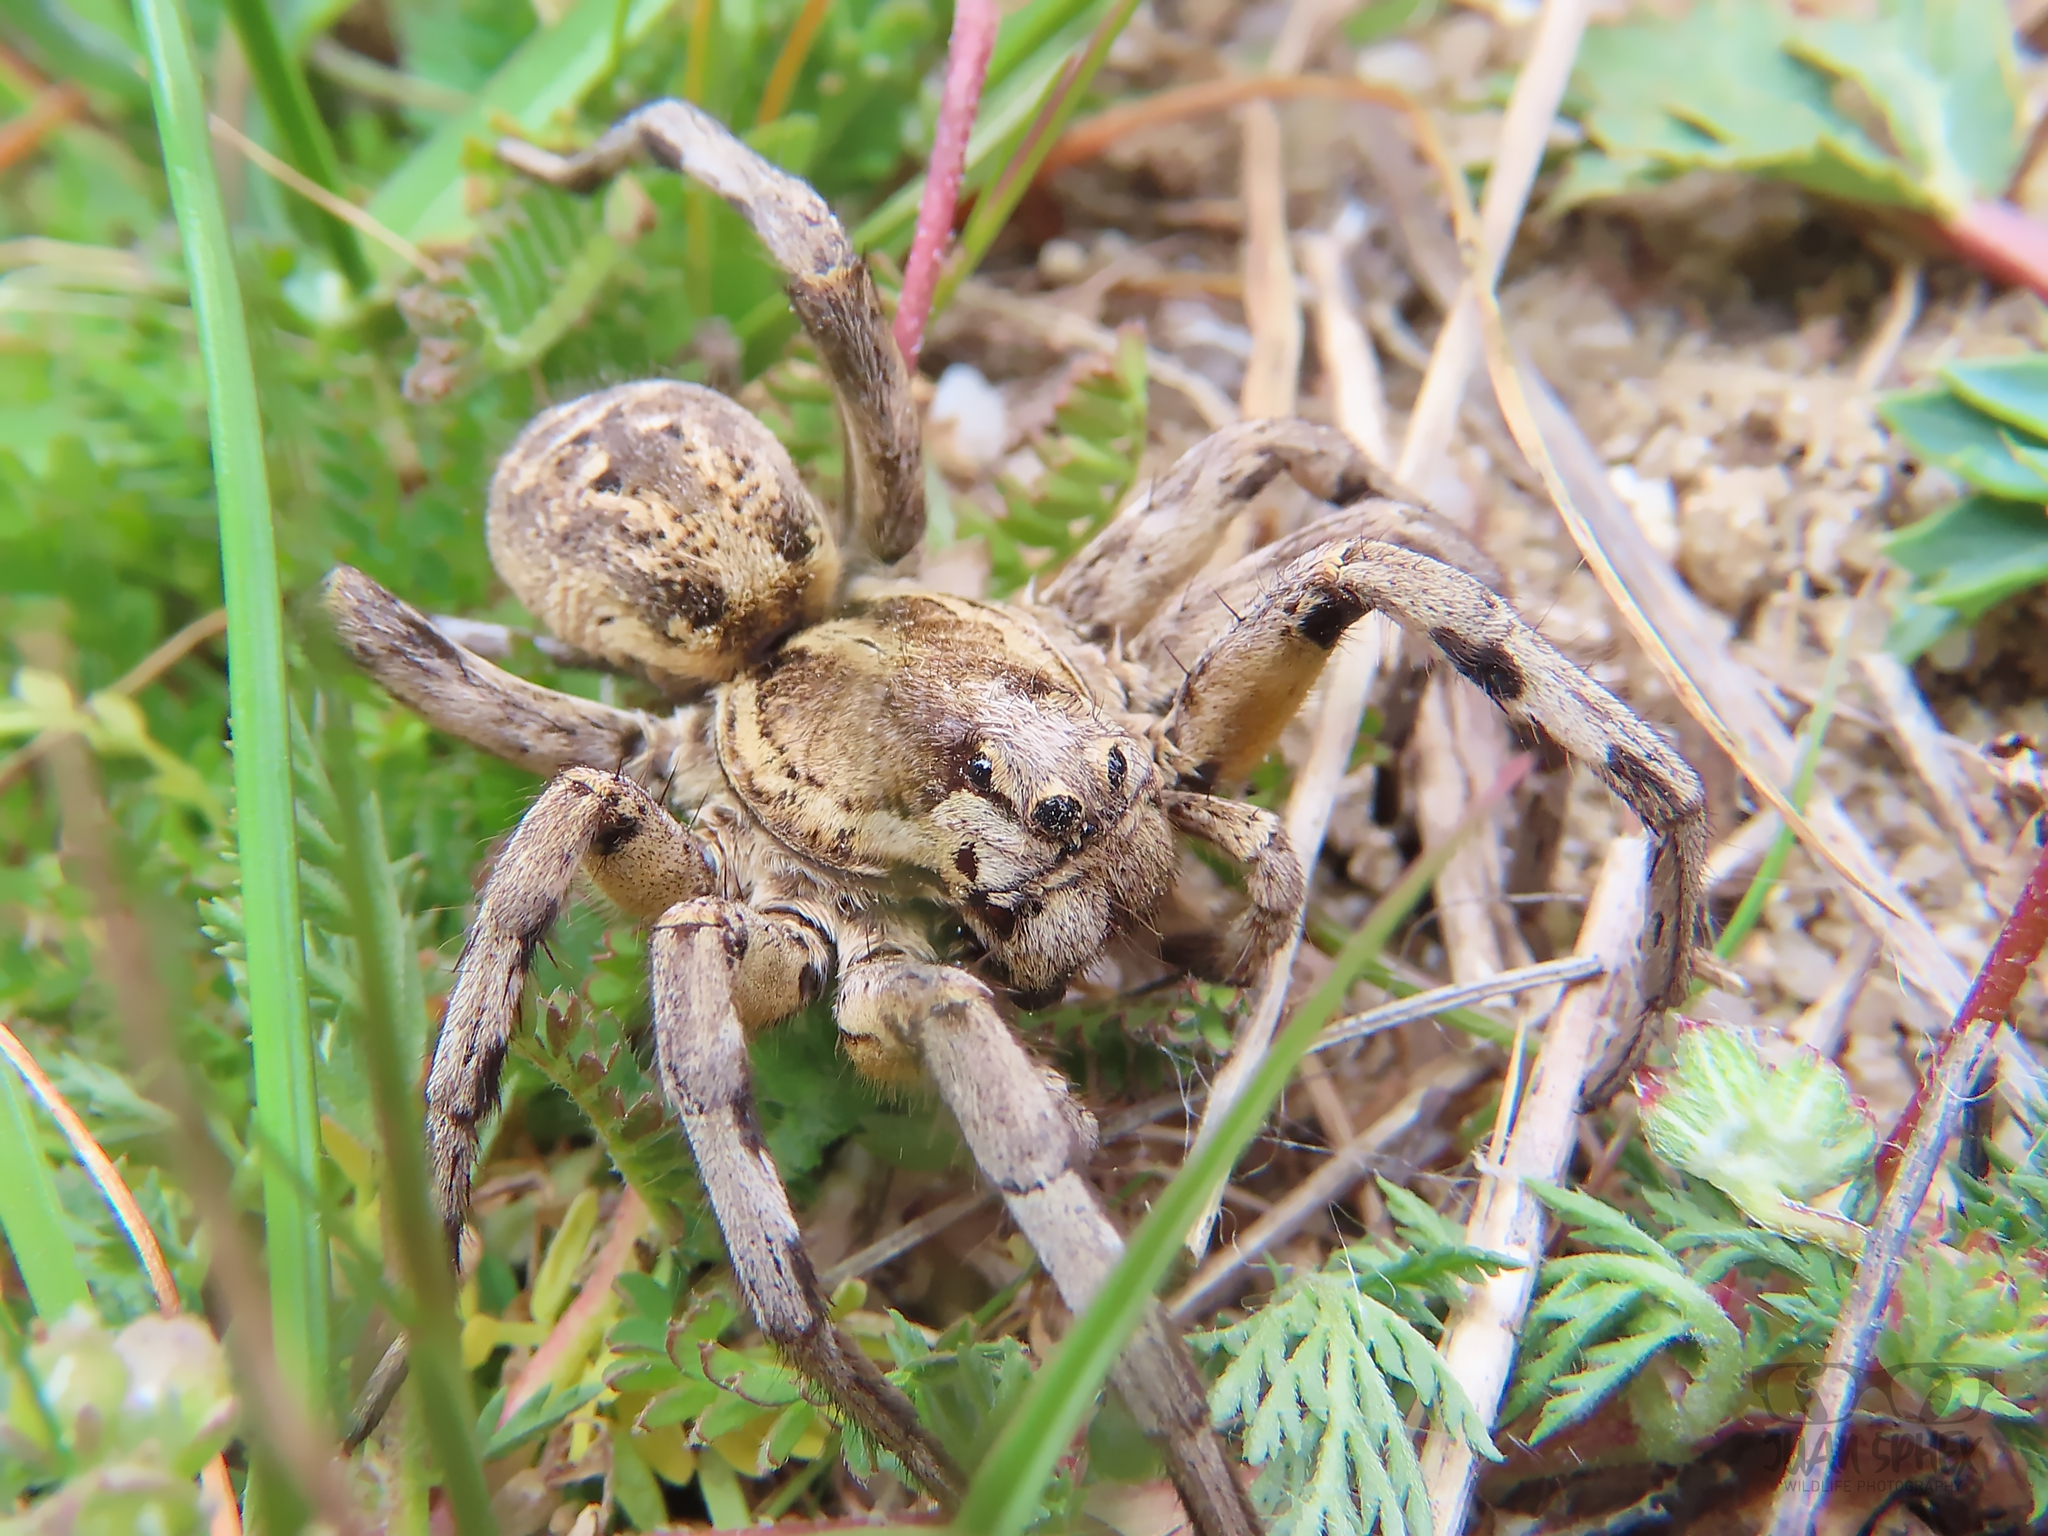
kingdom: Animalia
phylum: Arthropoda
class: Arachnida
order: Araneae
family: Lycosidae
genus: Lycosa
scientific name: Lycosa hispanica
